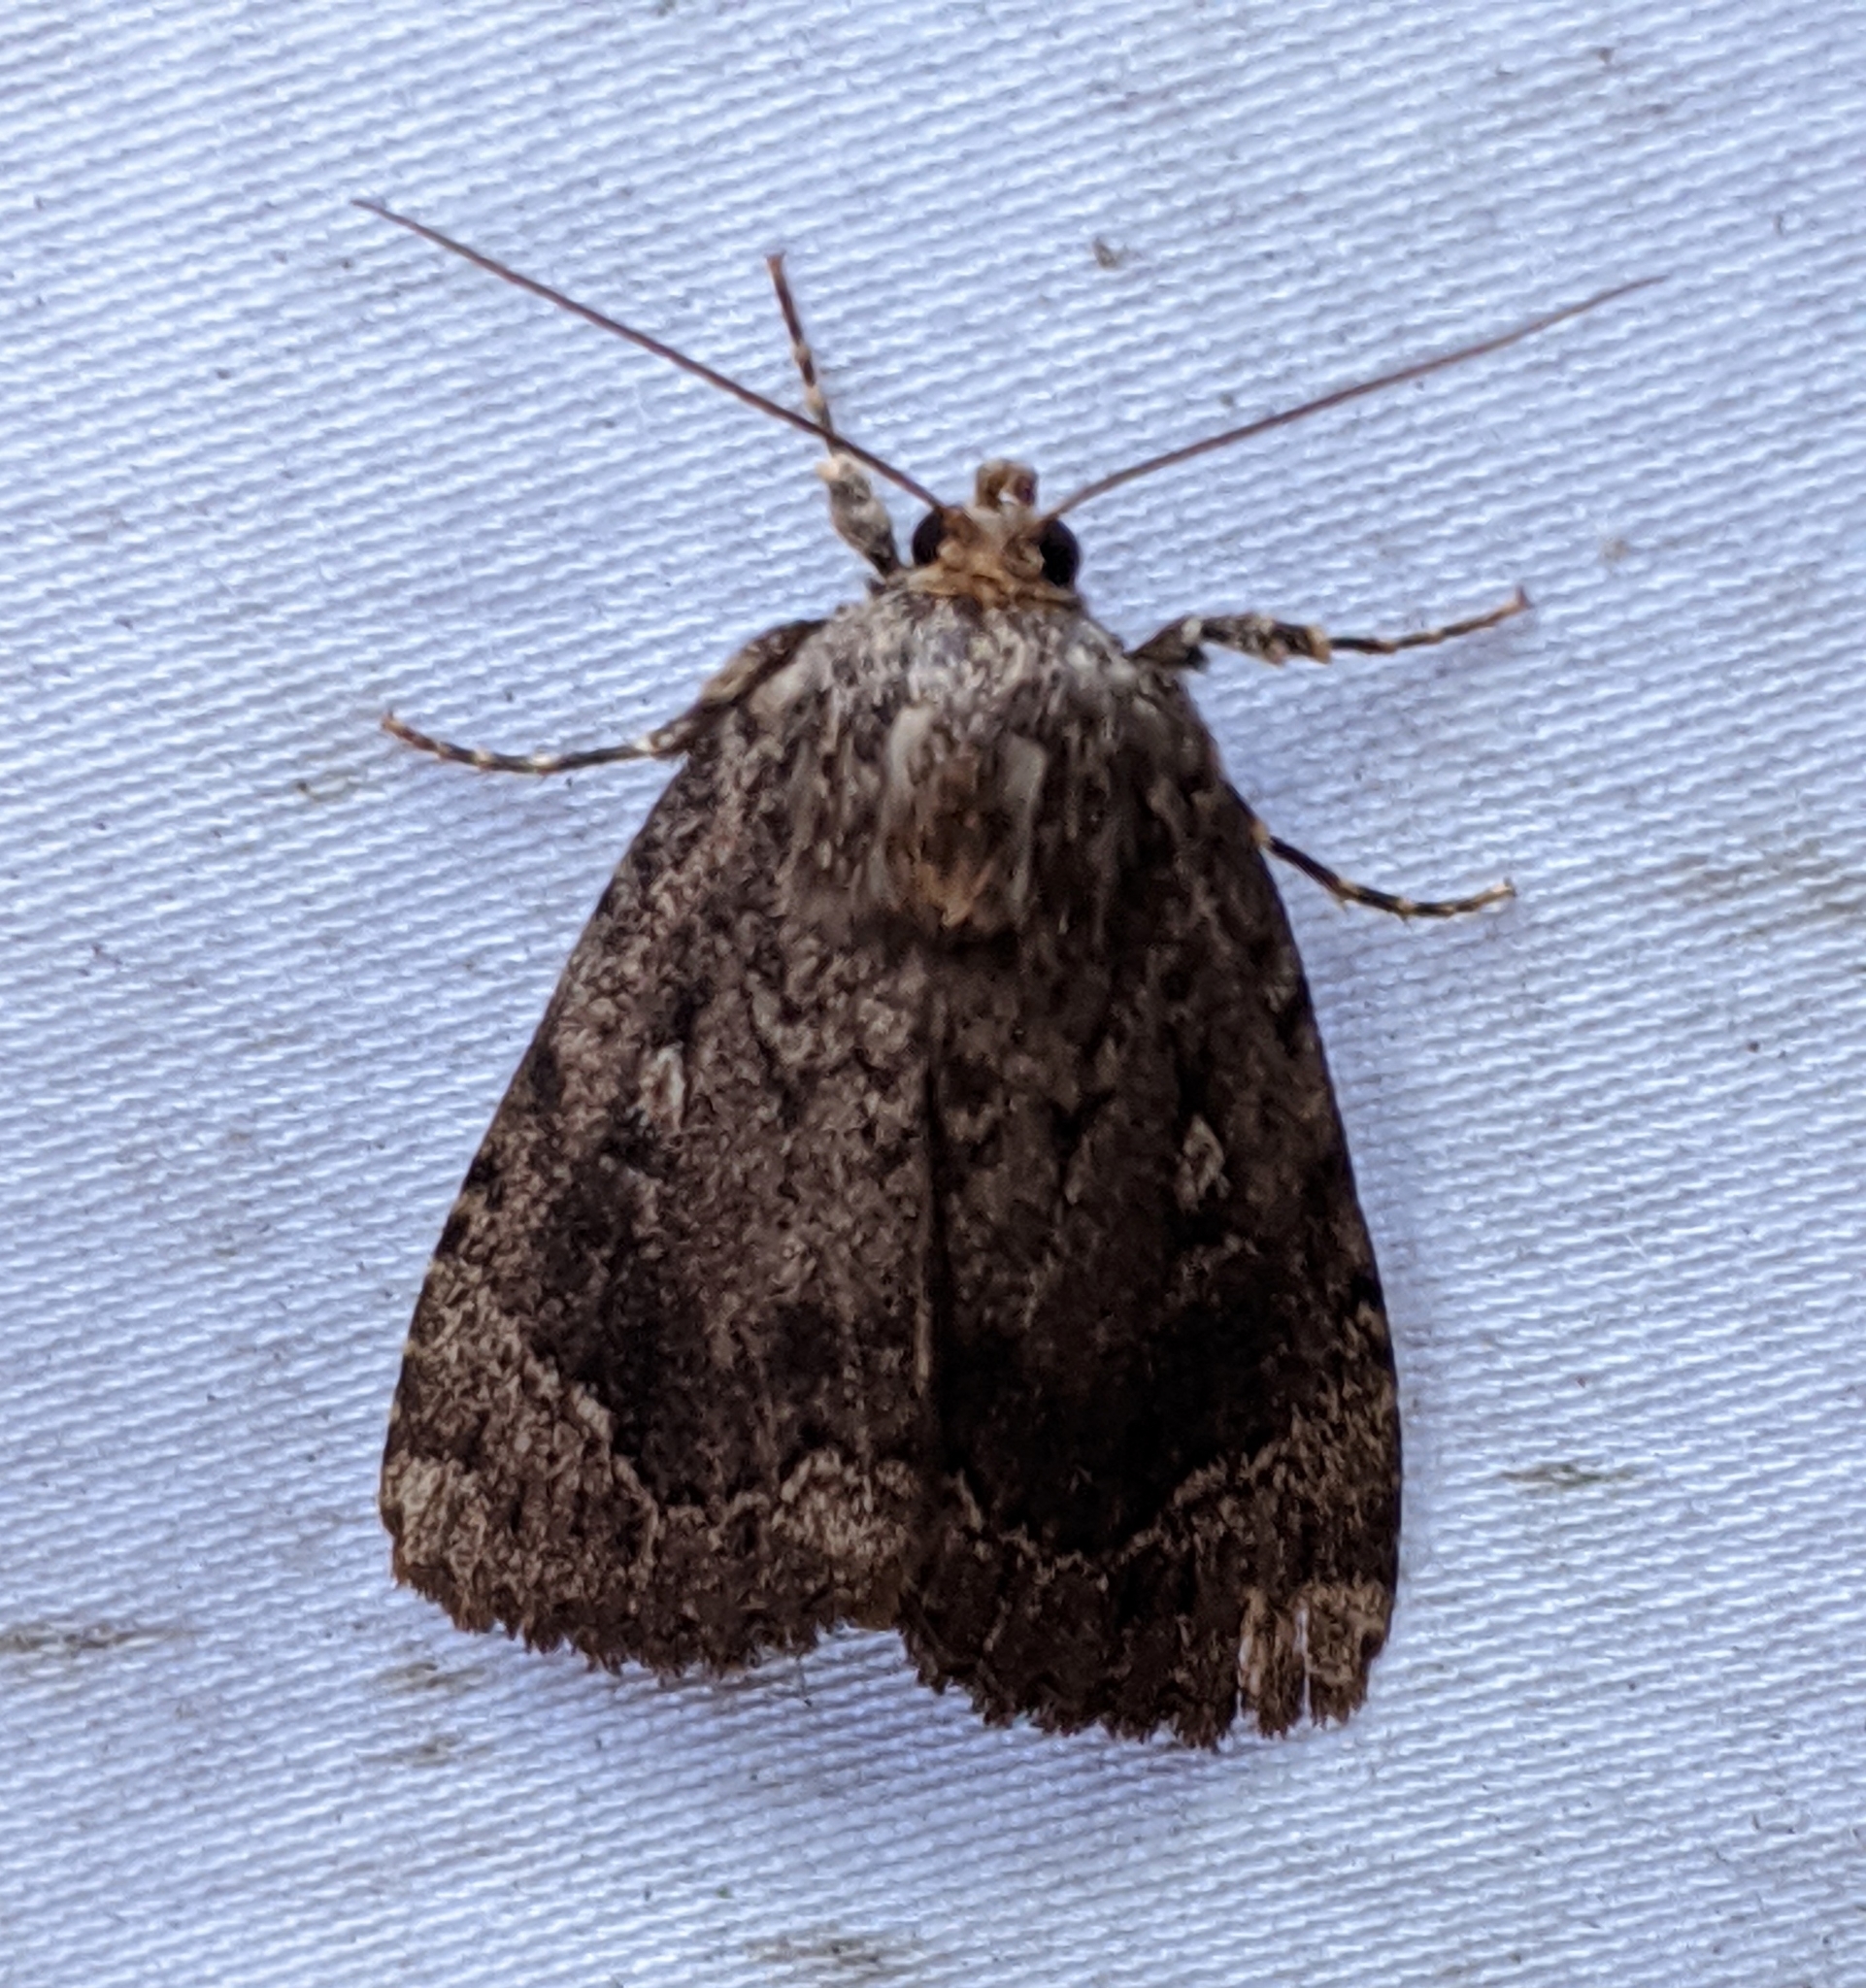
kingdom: Animalia
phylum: Arthropoda
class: Insecta
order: Lepidoptera
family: Noctuidae
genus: Amphipyra
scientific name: Amphipyra pyramidoides
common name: American copper underwing
